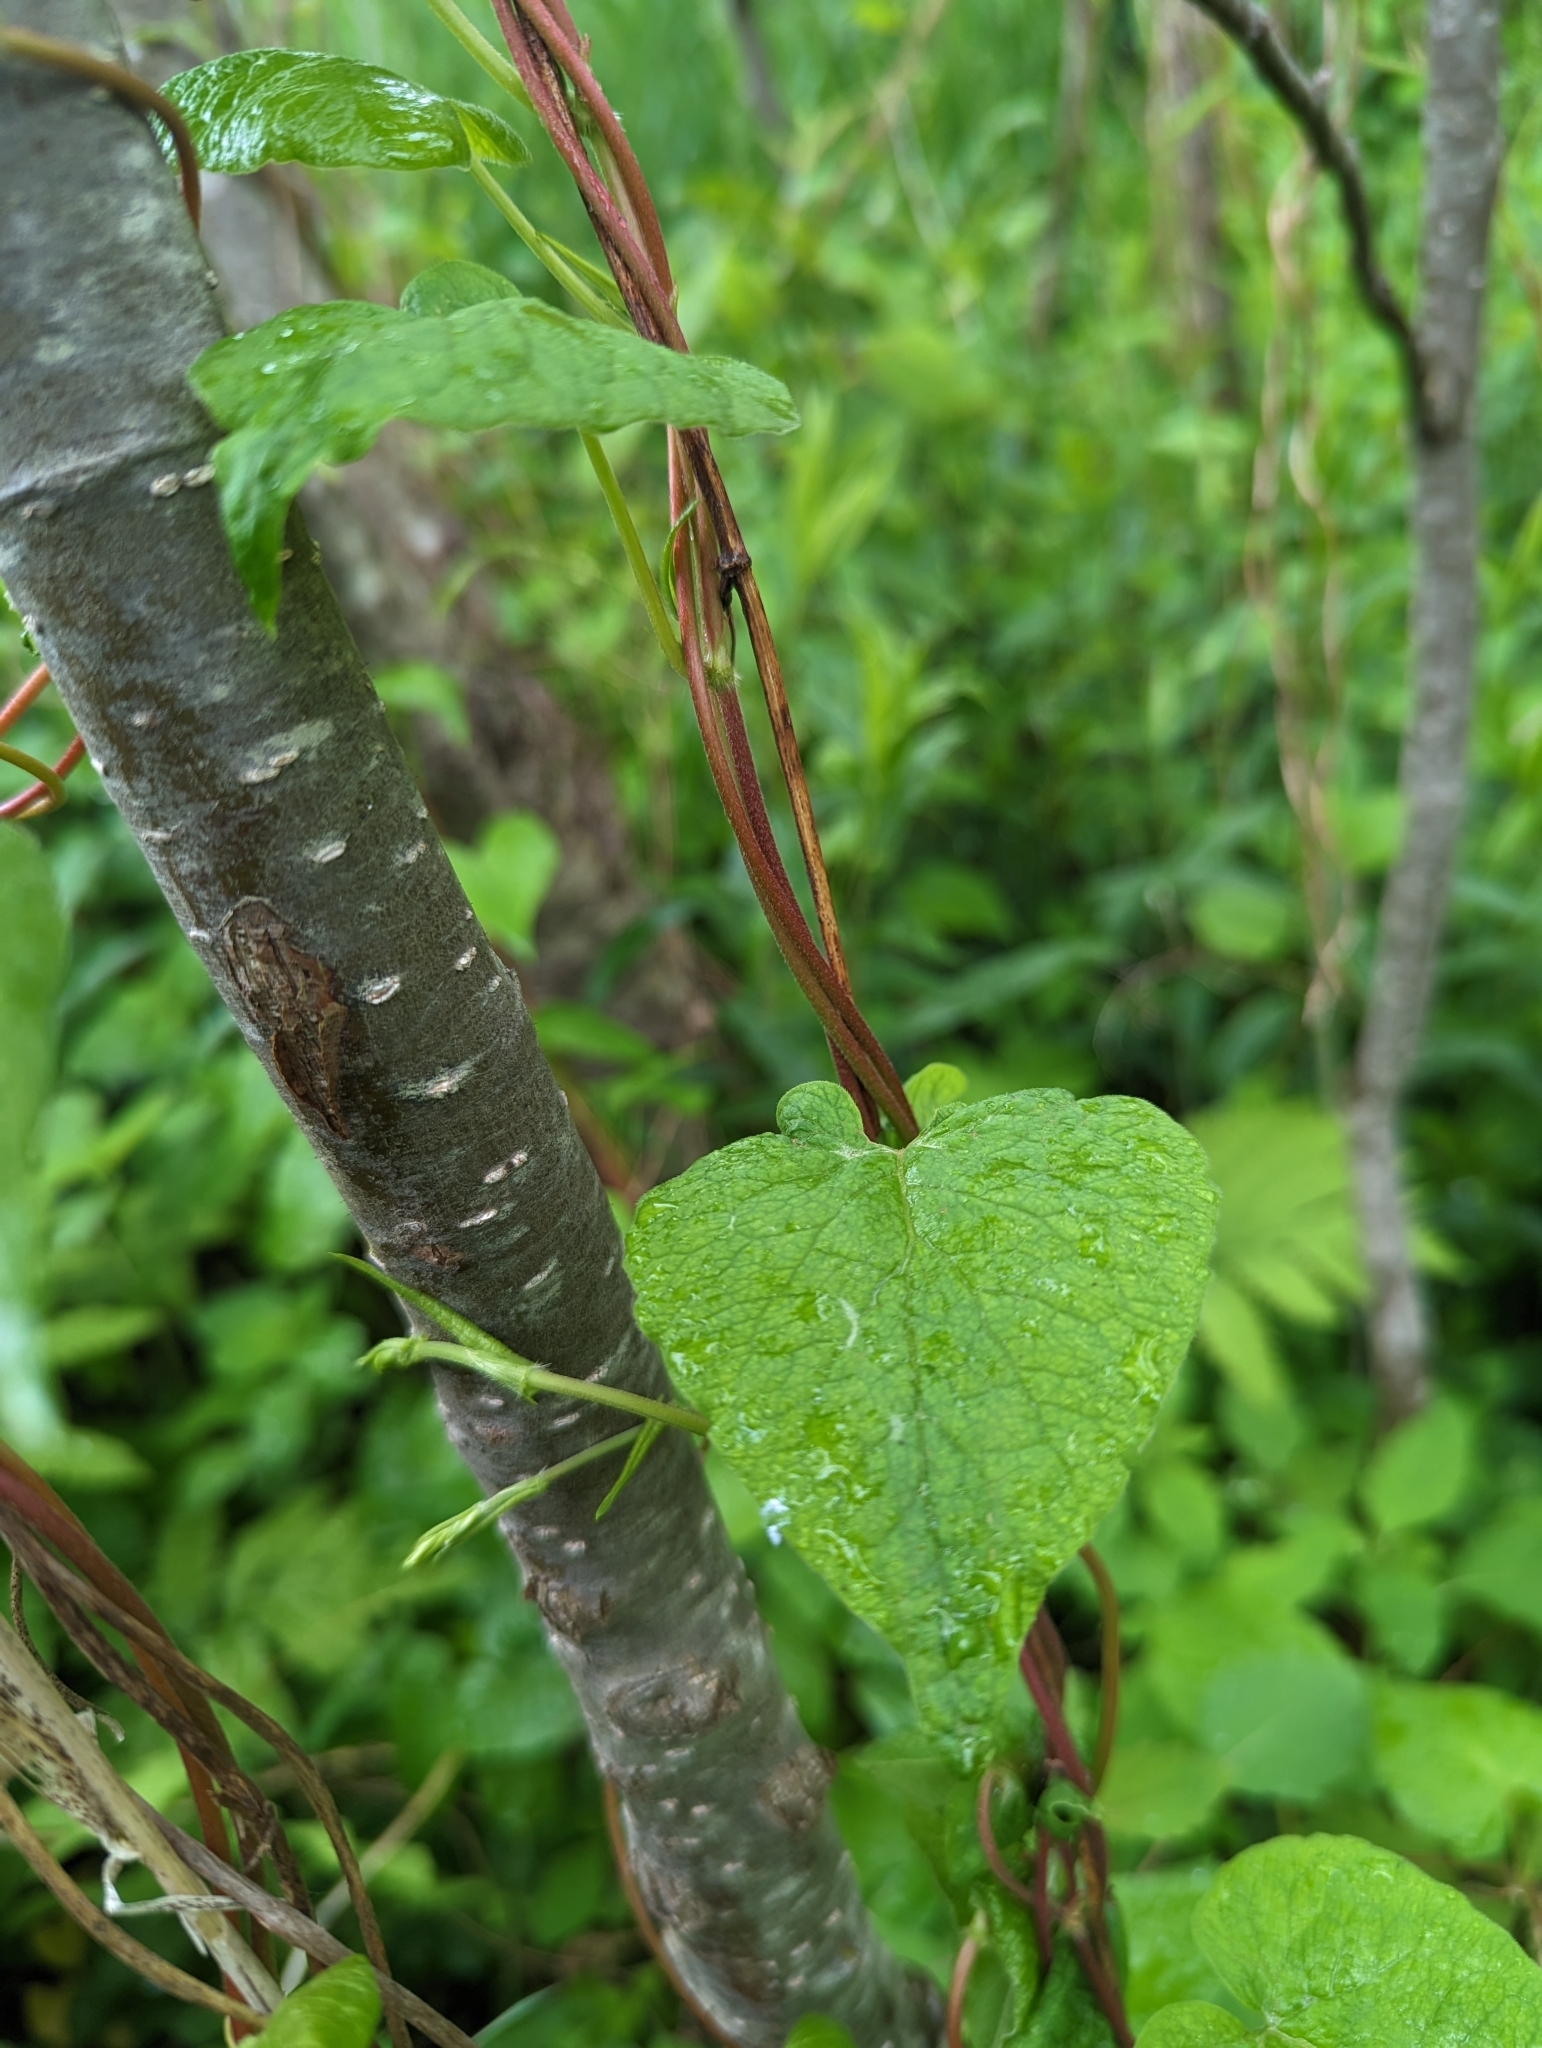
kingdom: Plantae
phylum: Tracheophyta
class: Magnoliopsida
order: Caryophyllales
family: Polygonaceae
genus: Parogonum
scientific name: Parogonum ciliinode
